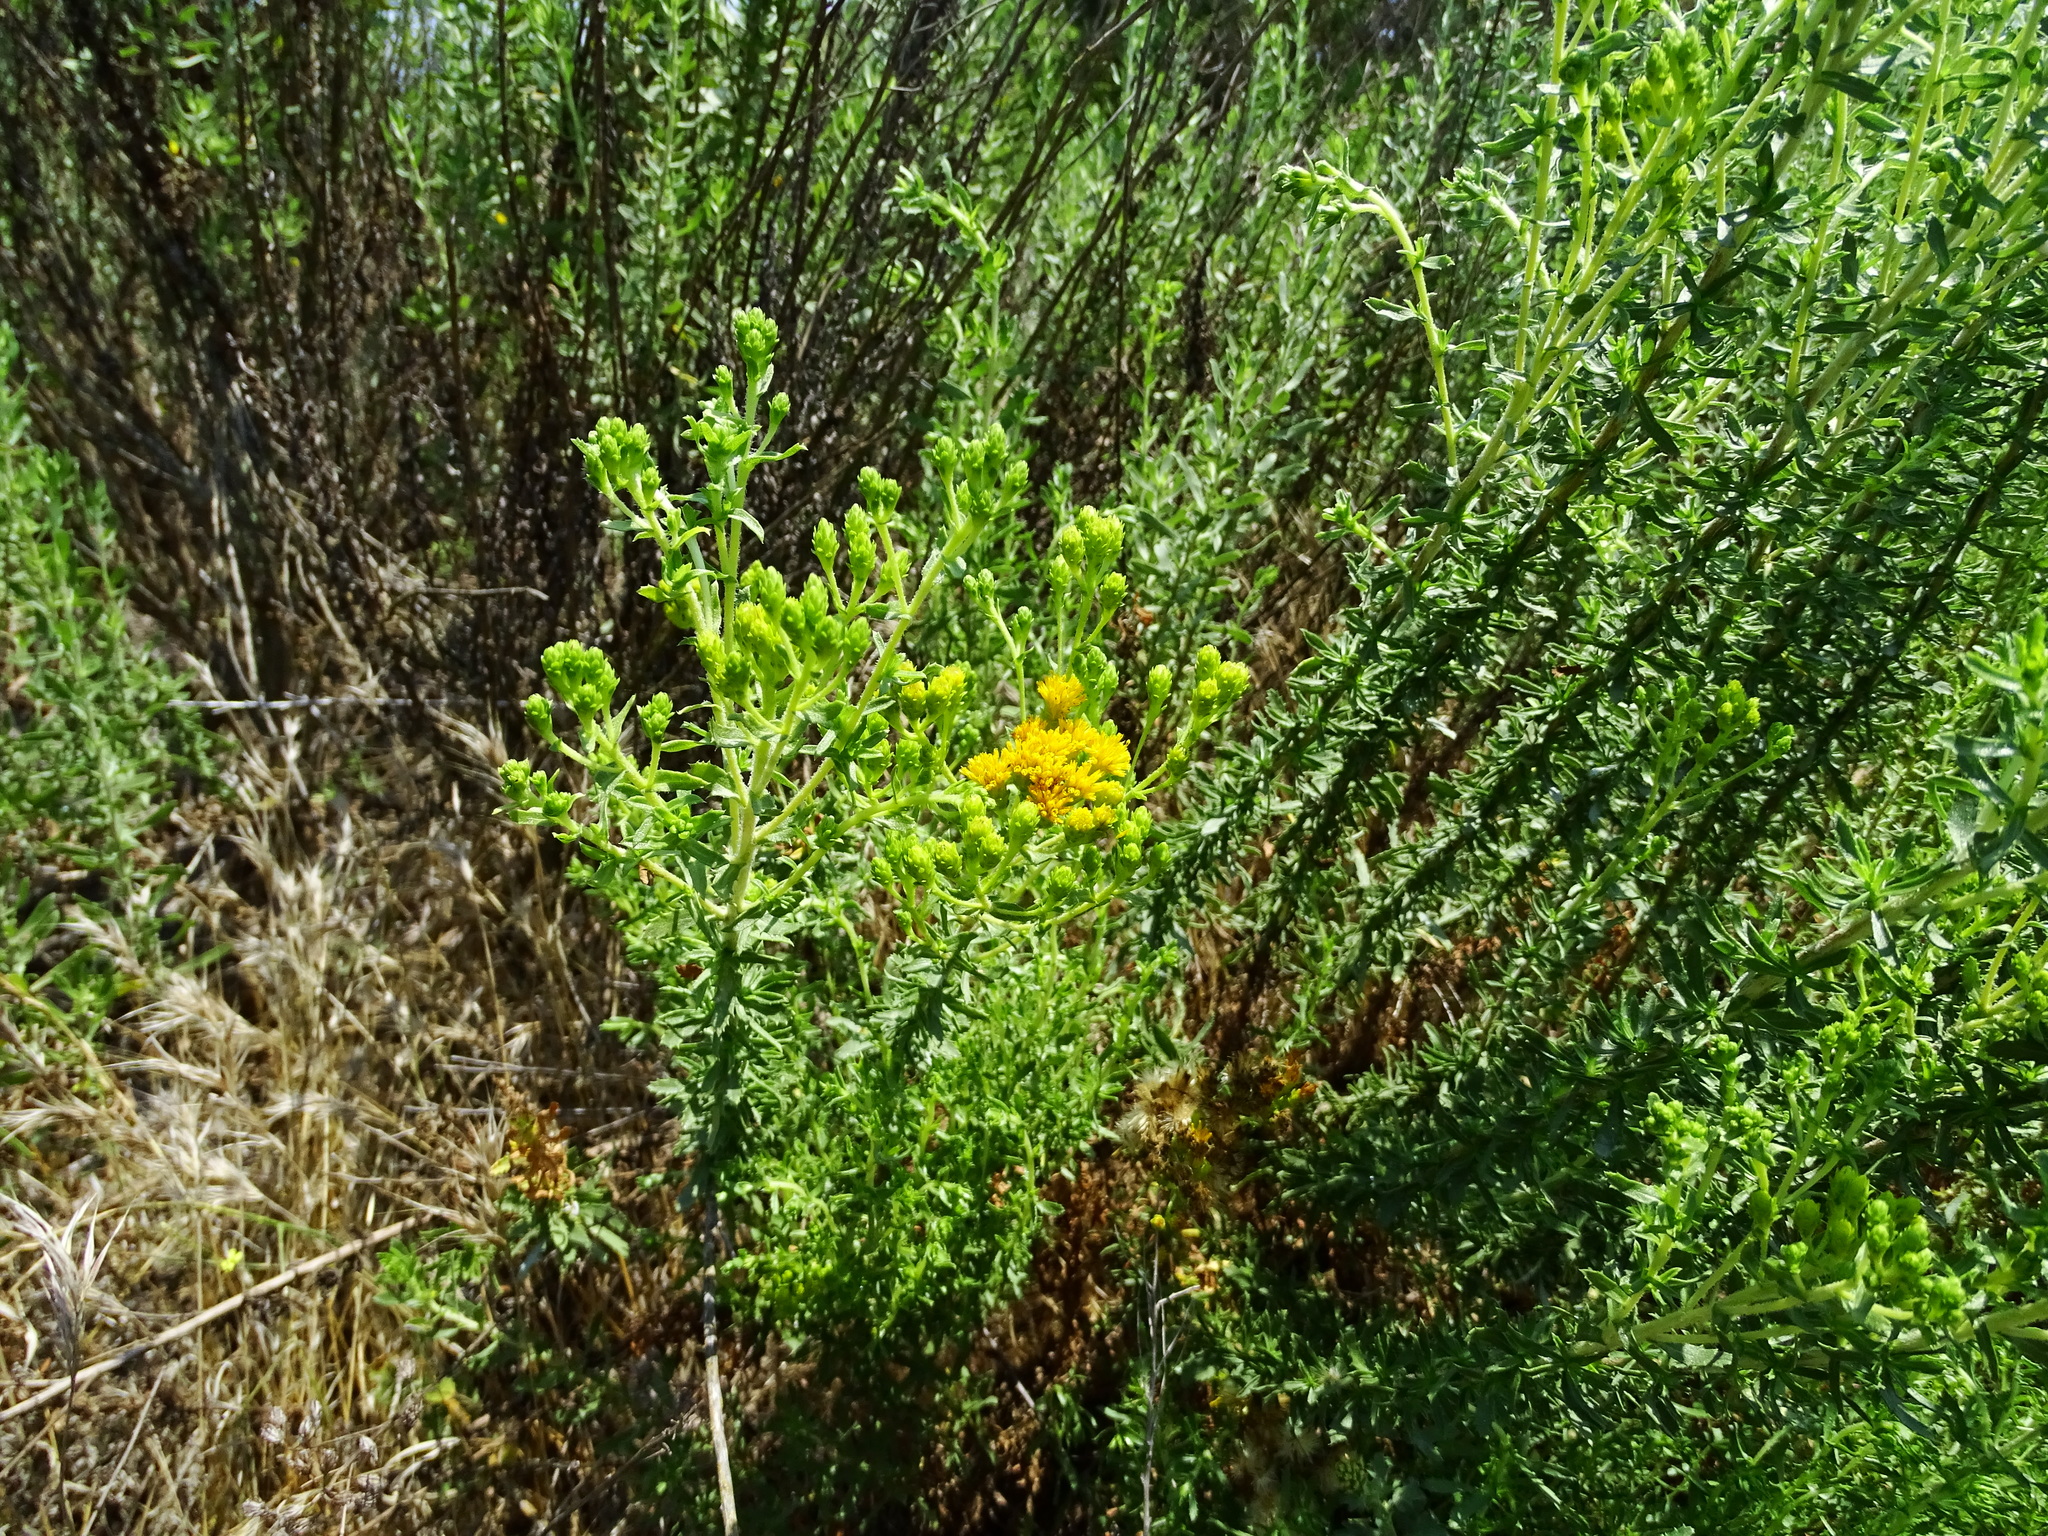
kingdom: Plantae
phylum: Tracheophyta
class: Magnoliopsida
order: Asterales
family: Asteraceae
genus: Isocoma
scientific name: Isocoma menziesii
